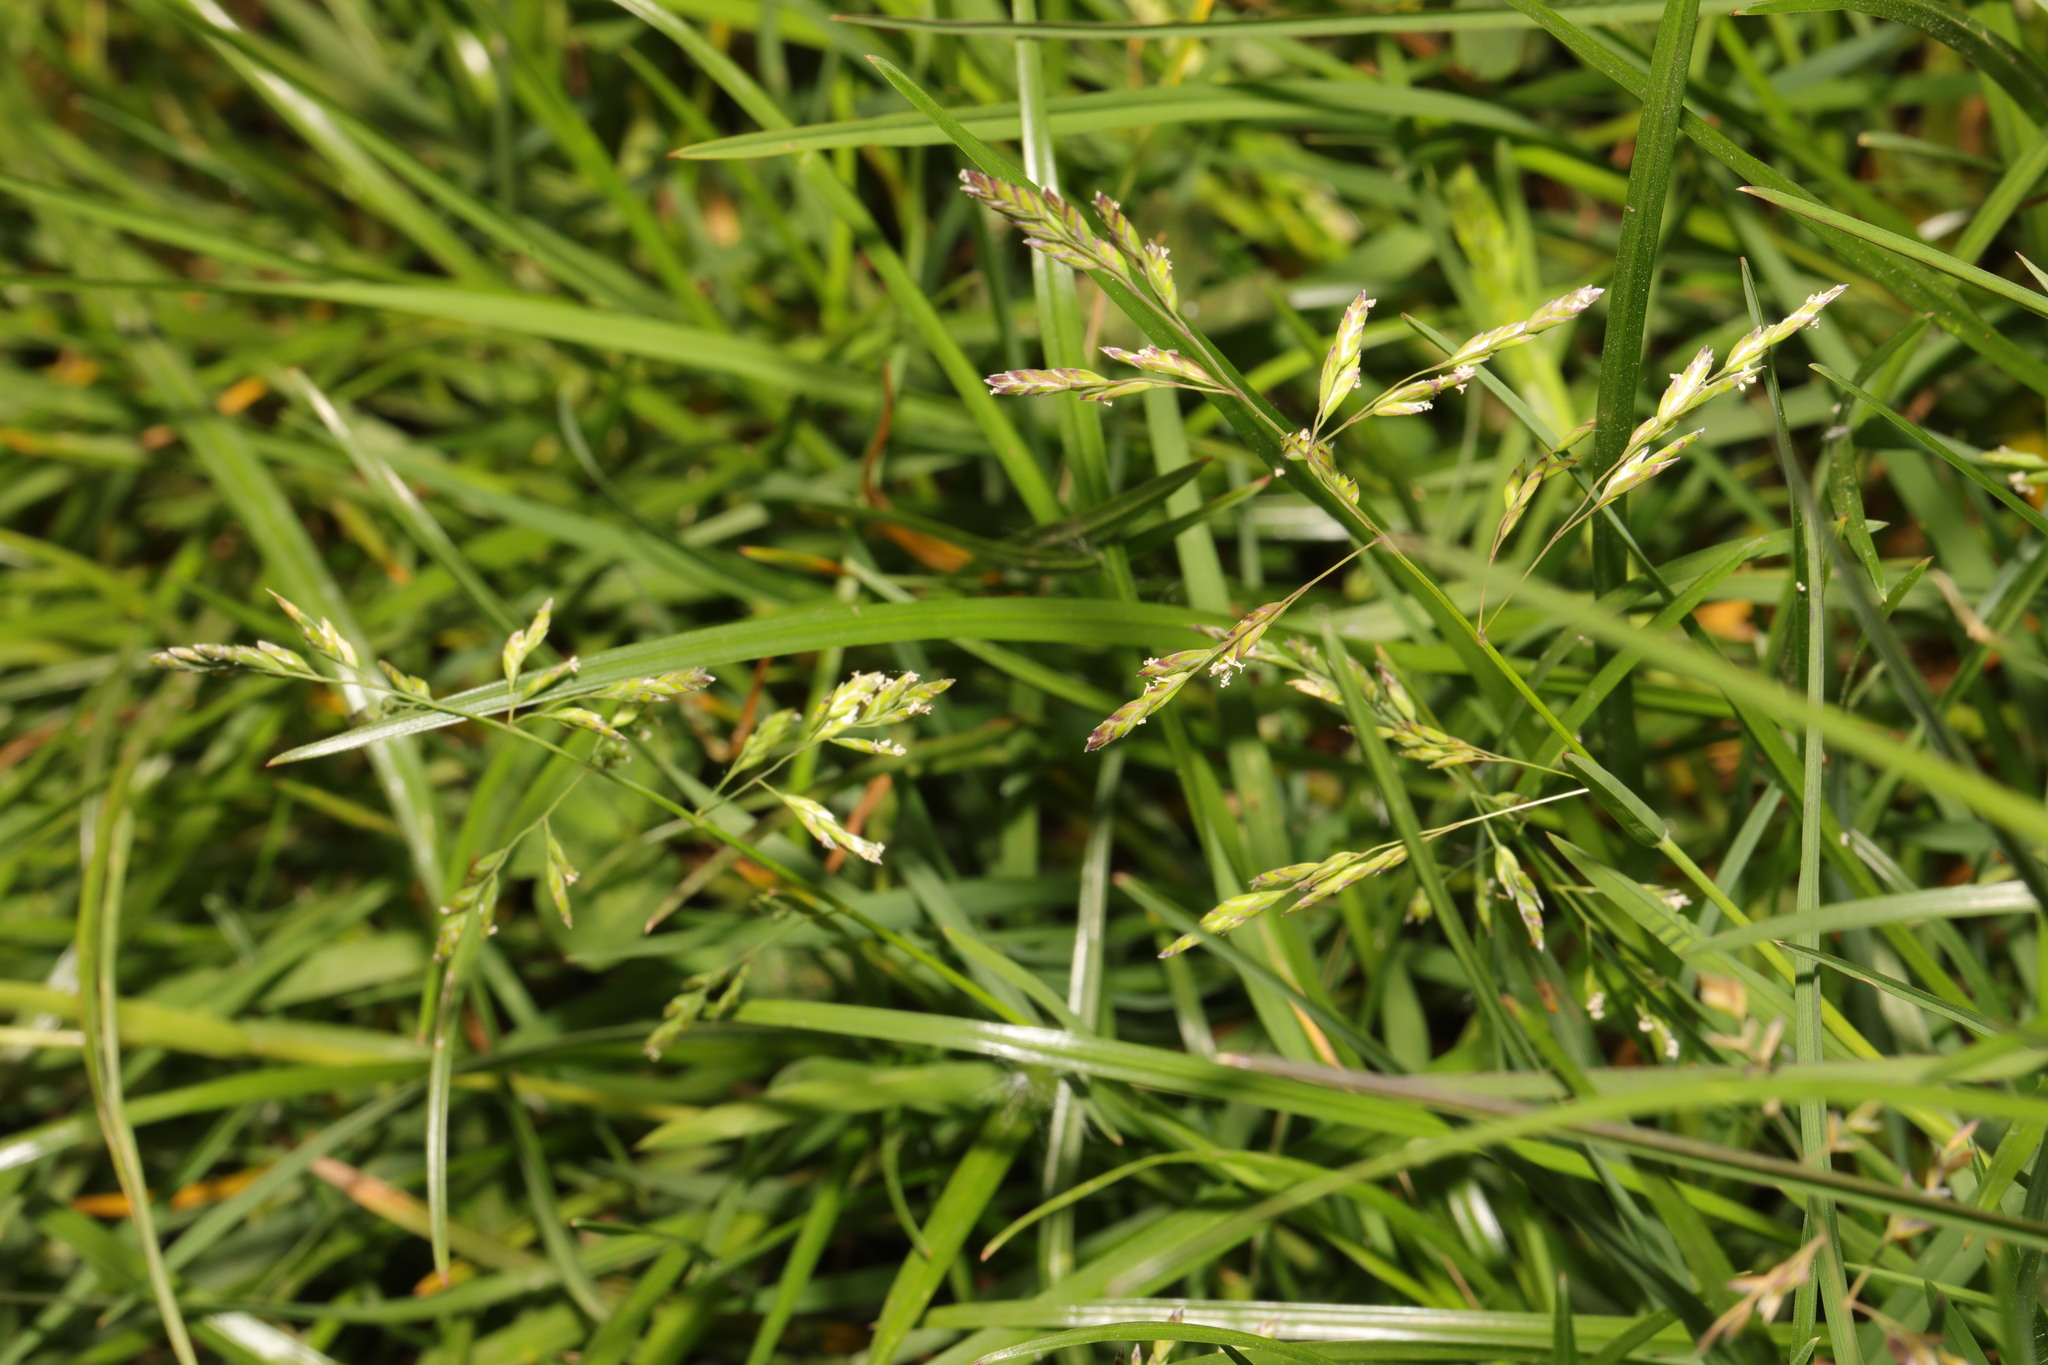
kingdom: Plantae
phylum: Tracheophyta
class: Liliopsida
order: Poales
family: Poaceae
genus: Poa
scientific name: Poa annua
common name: Annual bluegrass
